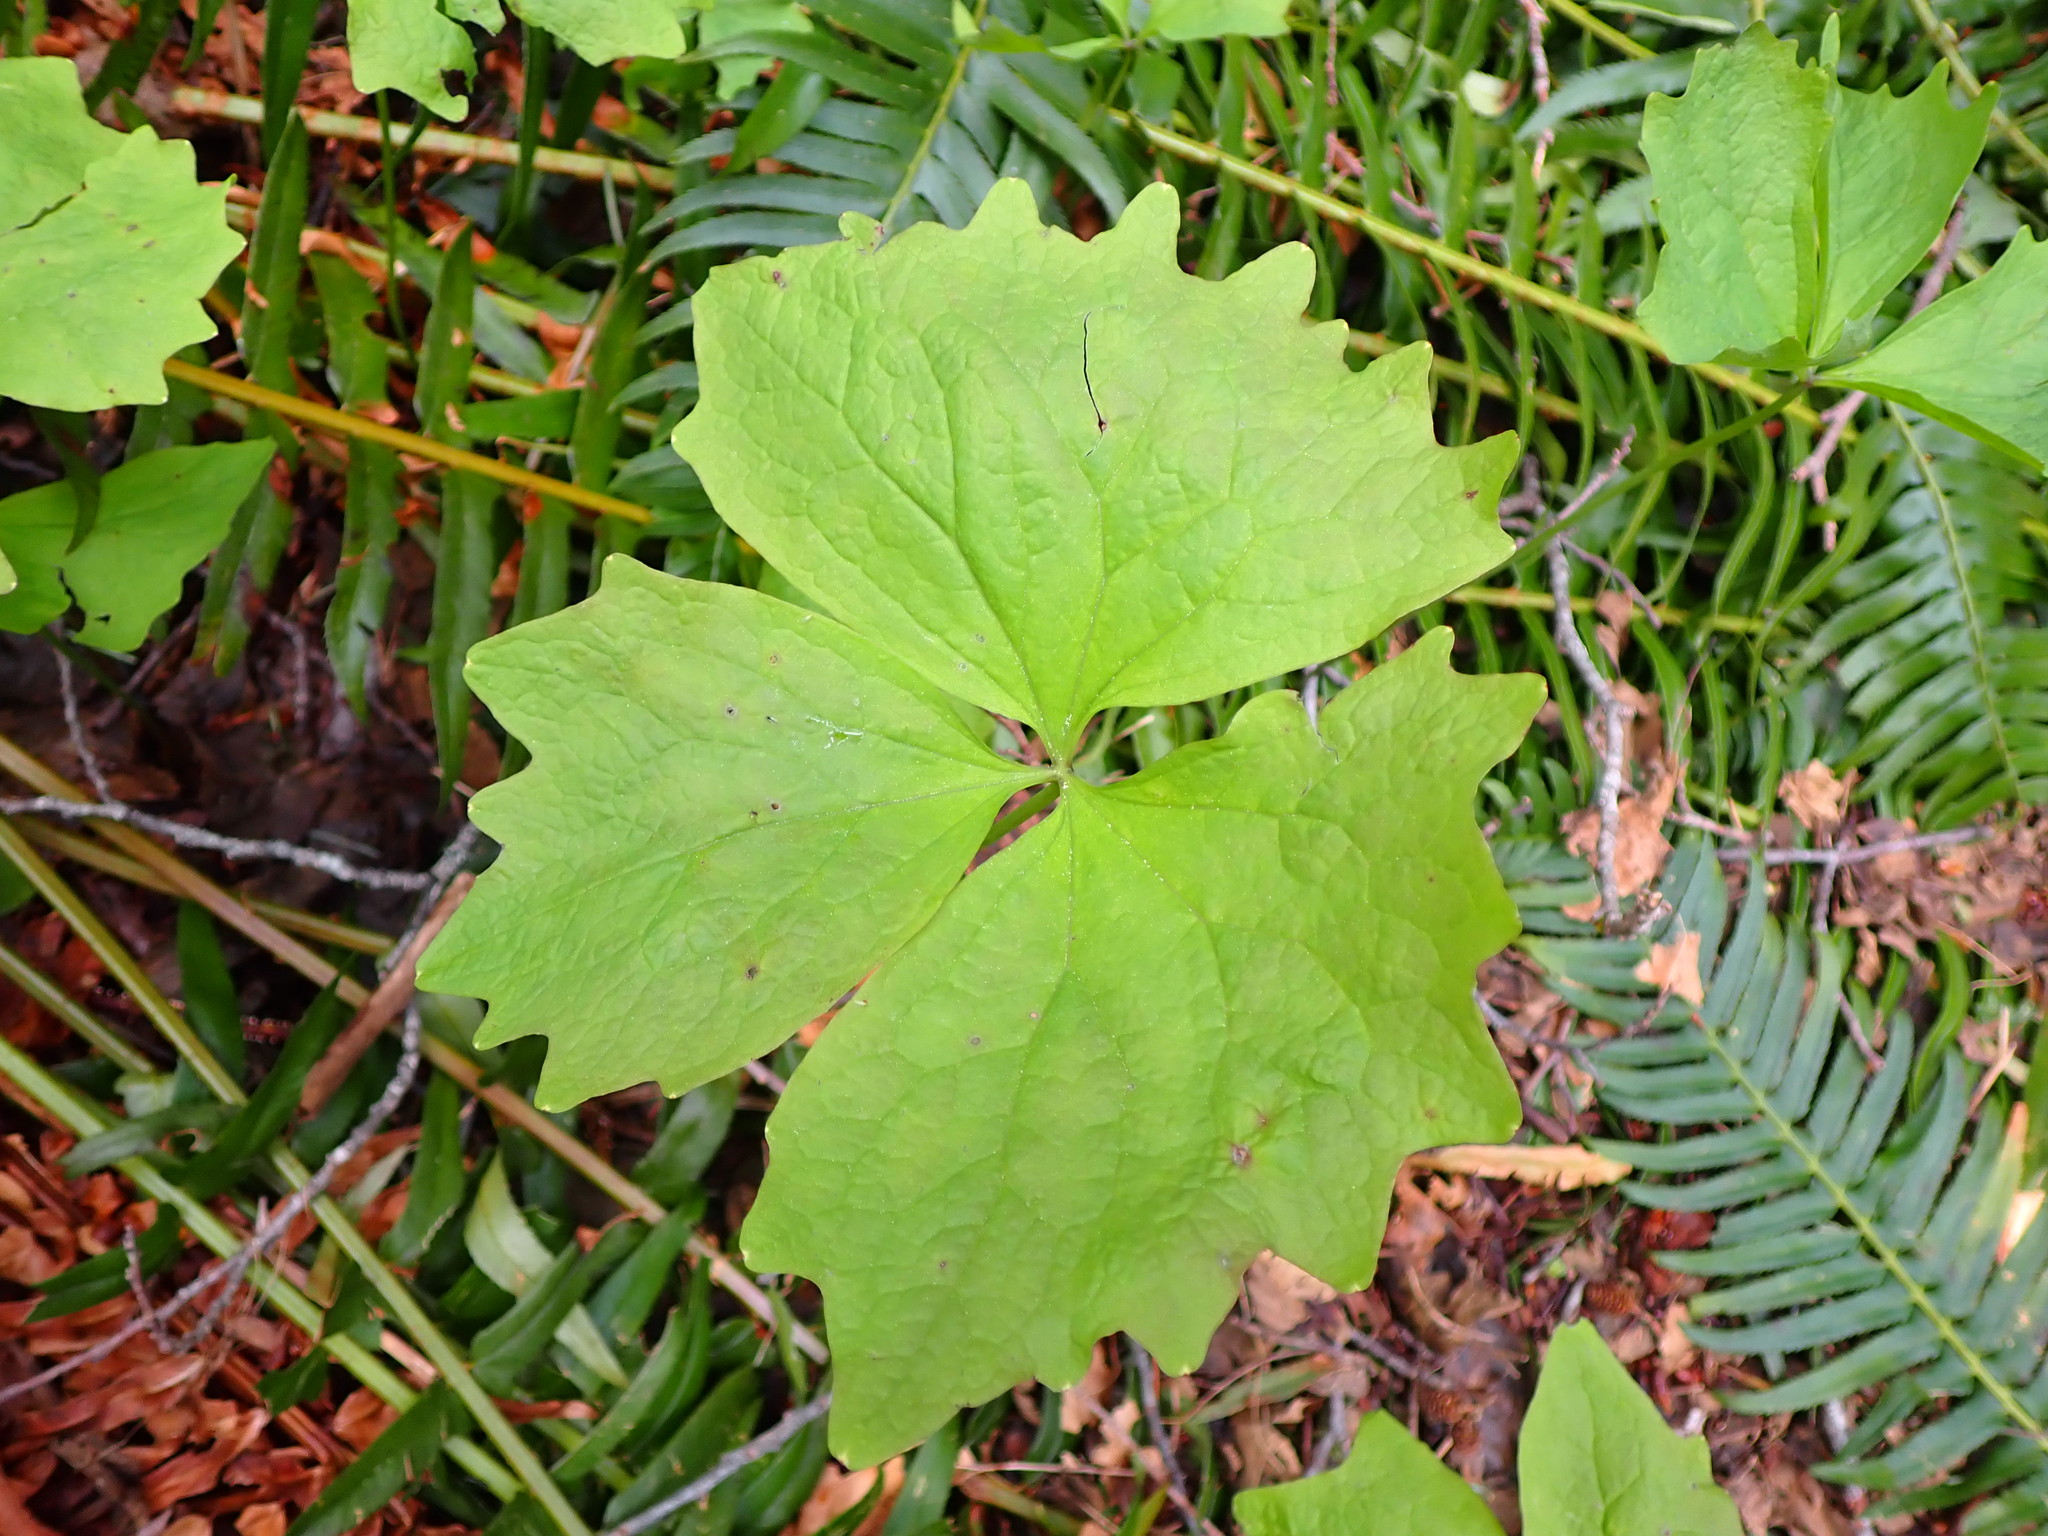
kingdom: Plantae
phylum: Tracheophyta
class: Magnoliopsida
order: Ranunculales
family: Berberidaceae
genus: Achlys
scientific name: Achlys triphylla
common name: Vanilla-leaf
